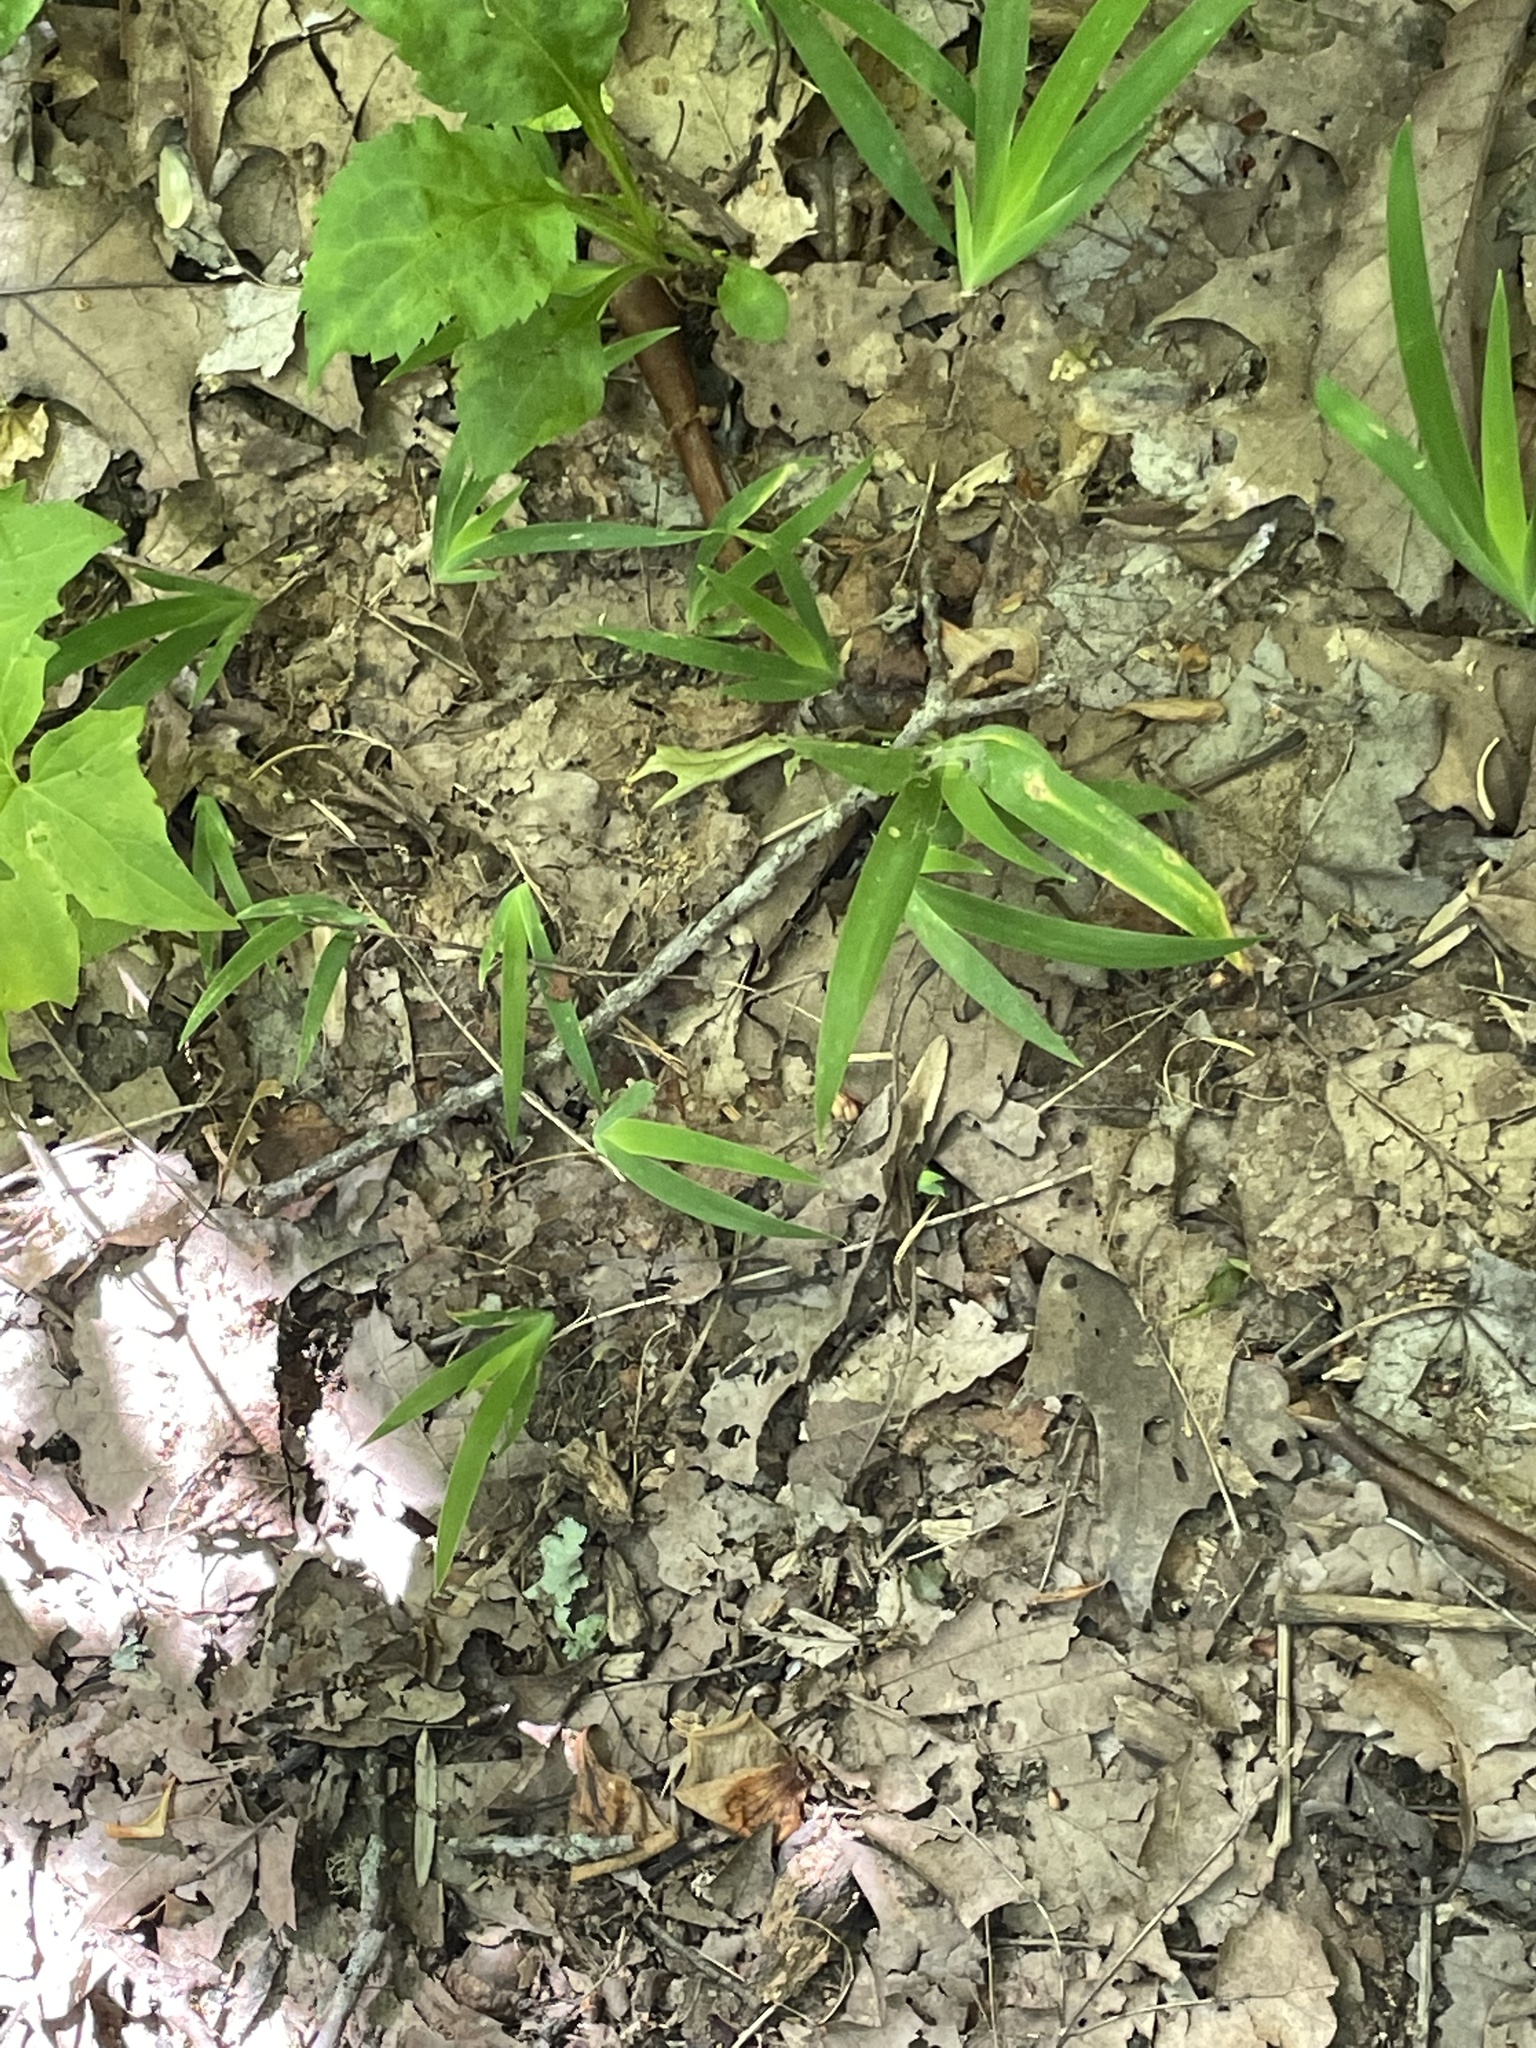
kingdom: Plantae
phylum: Tracheophyta
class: Liliopsida
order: Asparagales
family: Iridaceae
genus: Iris
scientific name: Iris cristata
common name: Crested iris
